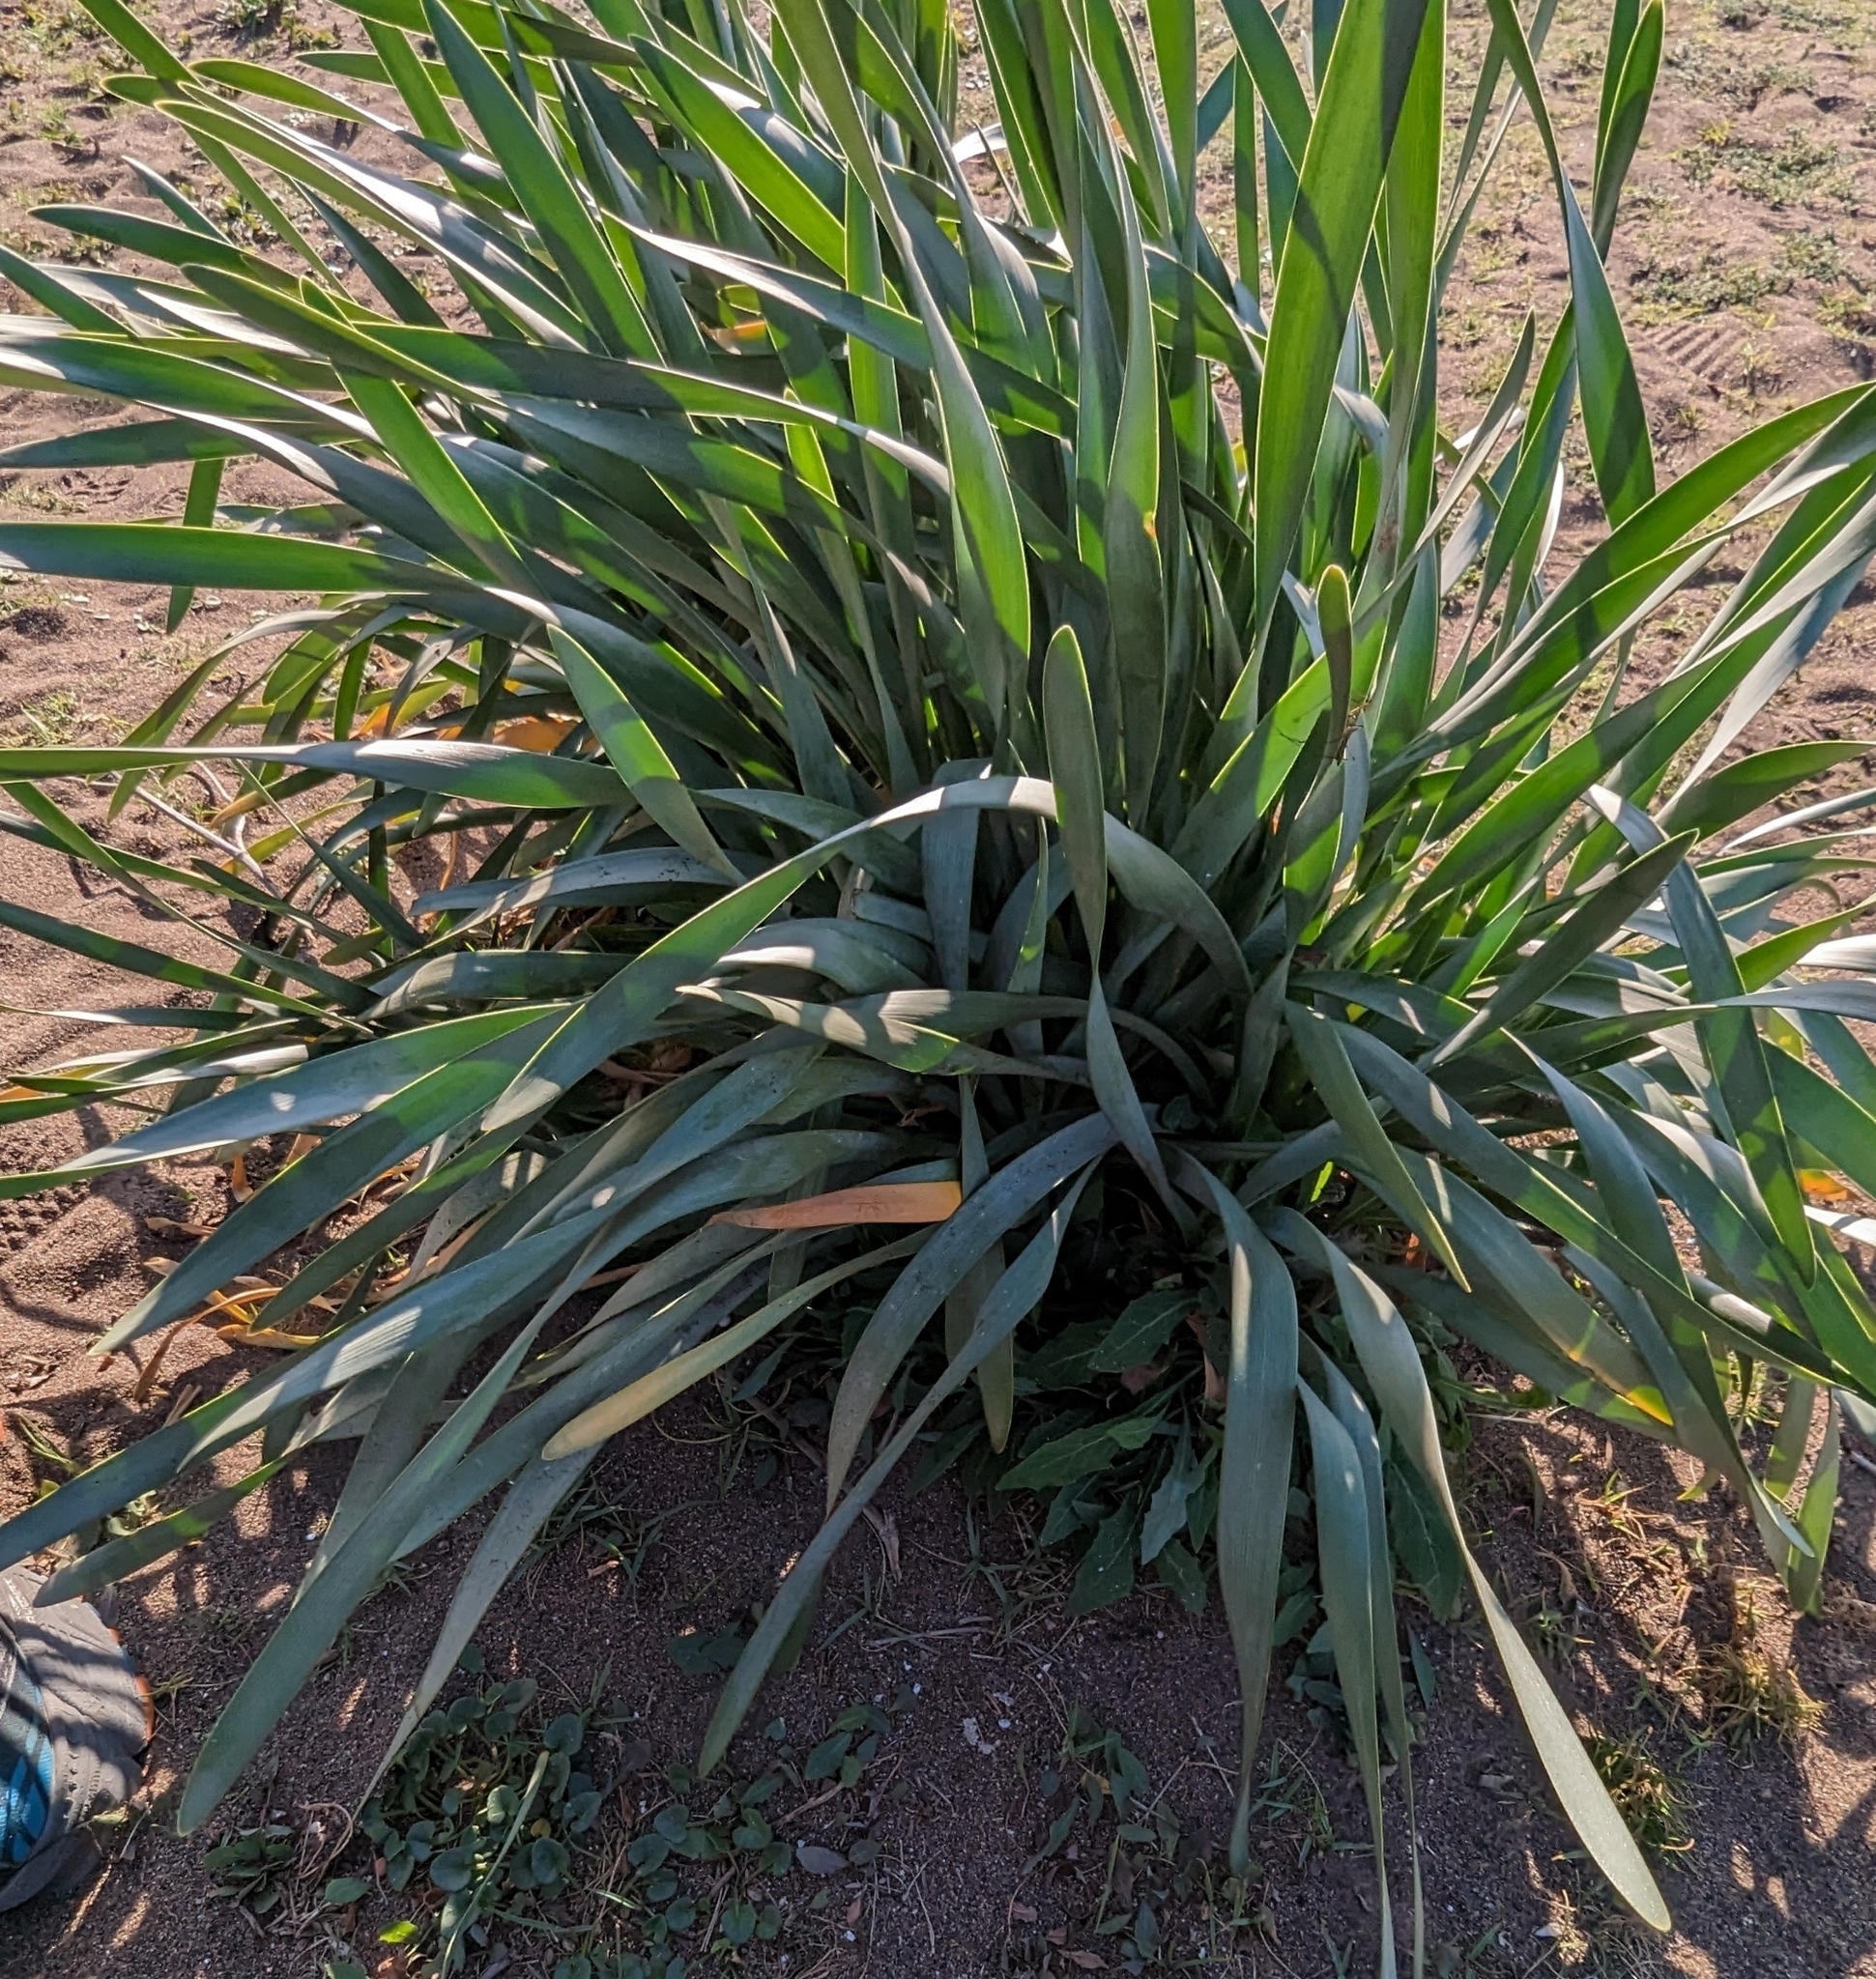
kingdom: Plantae
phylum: Tracheophyta
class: Liliopsida
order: Asparagales
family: Amaryllidaceae
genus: Pancratium
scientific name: Pancratium maritimum
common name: Sea-daffodil
